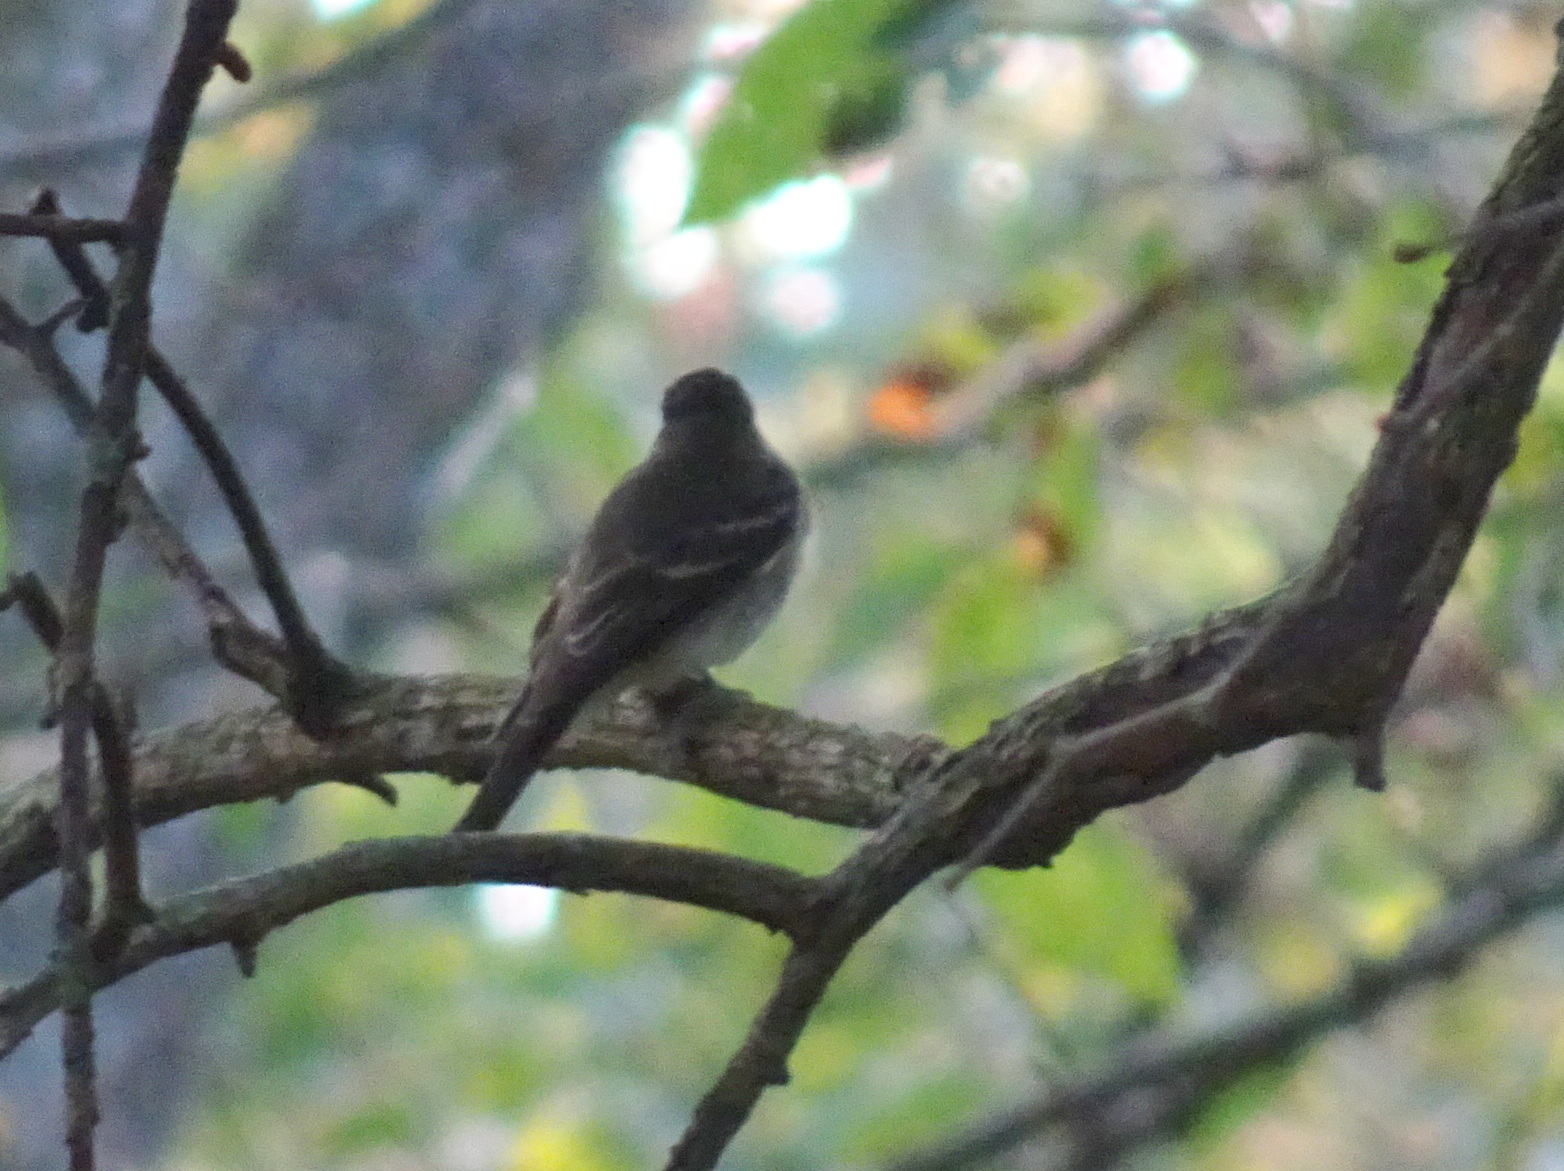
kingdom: Animalia
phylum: Chordata
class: Aves
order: Passeriformes
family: Tyrannidae
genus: Contopus
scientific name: Contopus virens
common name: Eastern wood-pewee
